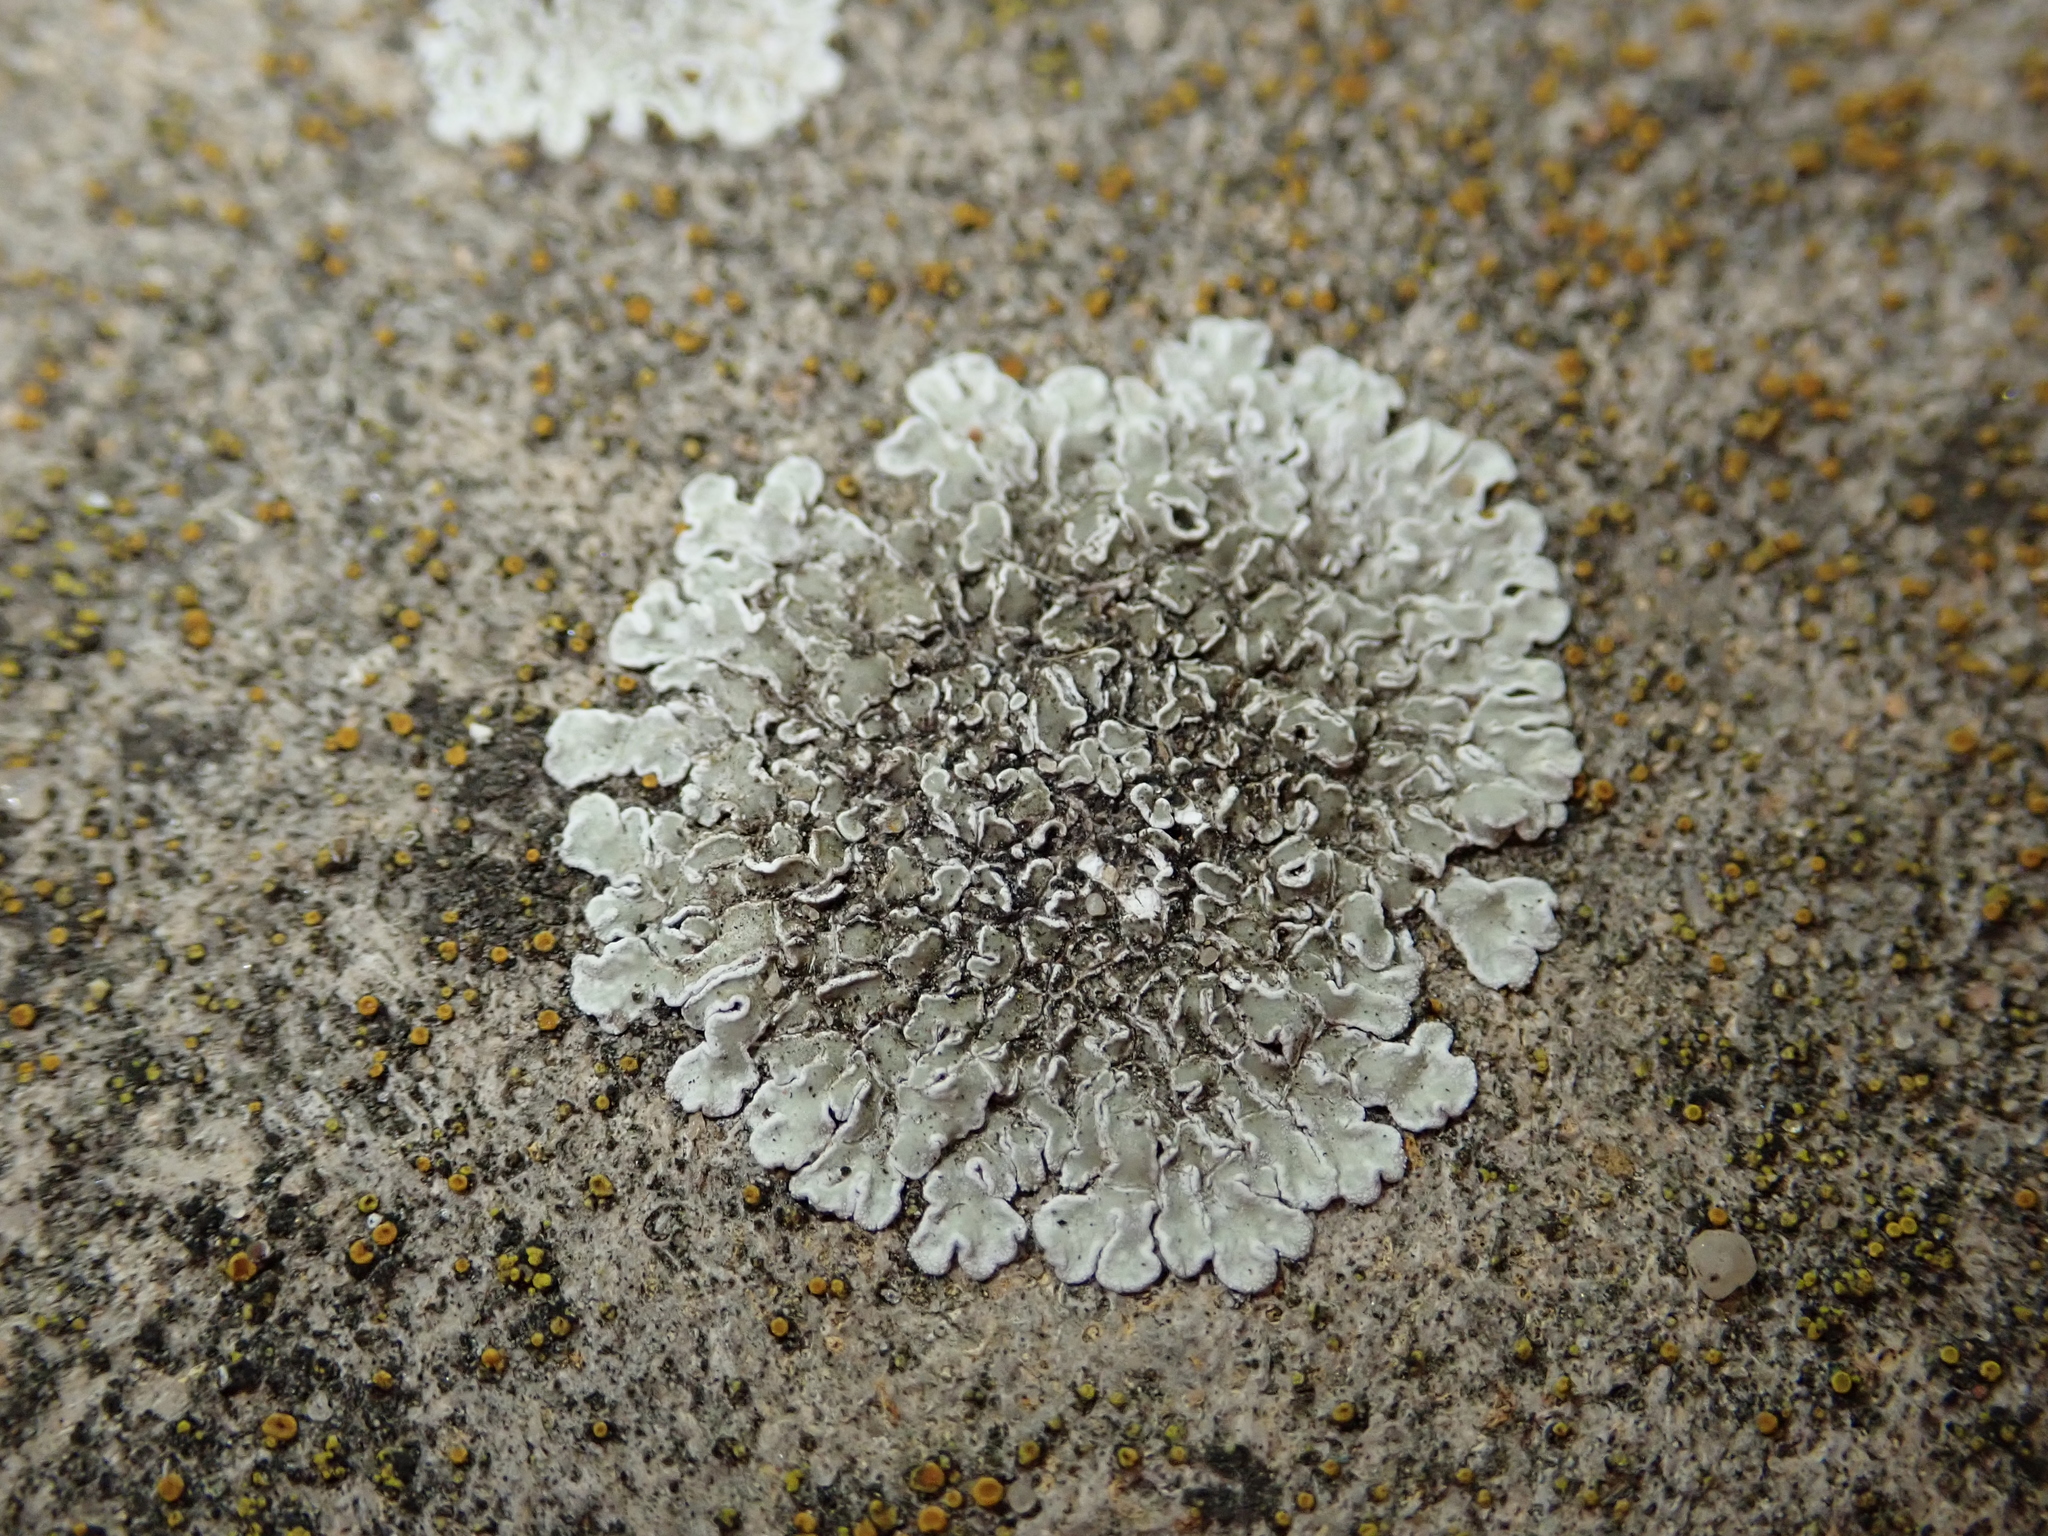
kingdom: Fungi
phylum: Ascomycota
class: Lecanoromycetes
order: Lecanorales
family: Lecanoraceae
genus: Protoparmeliopsis
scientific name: Protoparmeliopsis muralis
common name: Stonewall rim lichen
